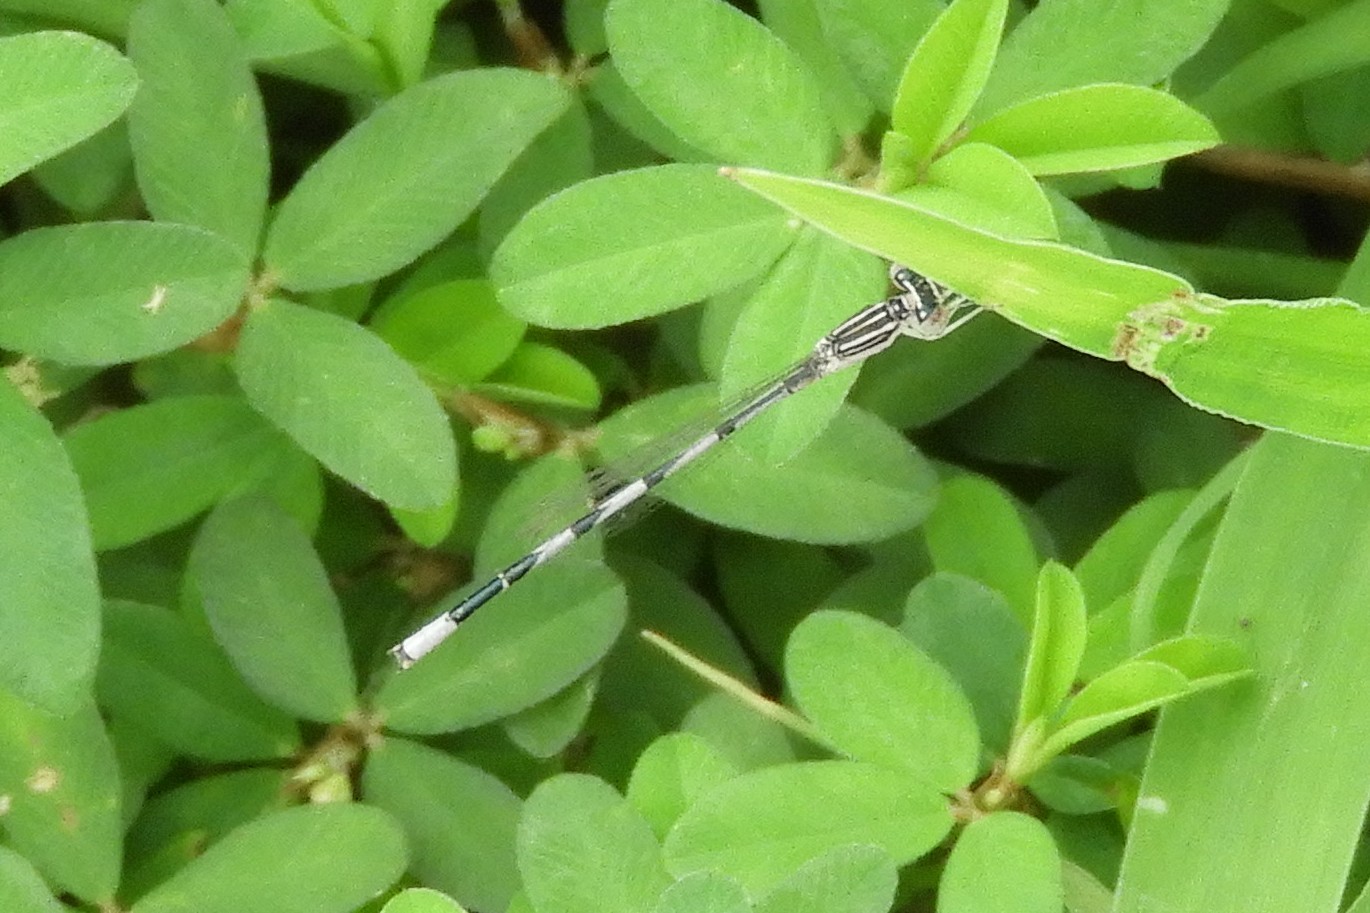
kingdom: Animalia
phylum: Arthropoda
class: Insecta
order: Odonata
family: Coenagrionidae
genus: Enallagma
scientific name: Enallagma basidens
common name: Double-striped bluet
